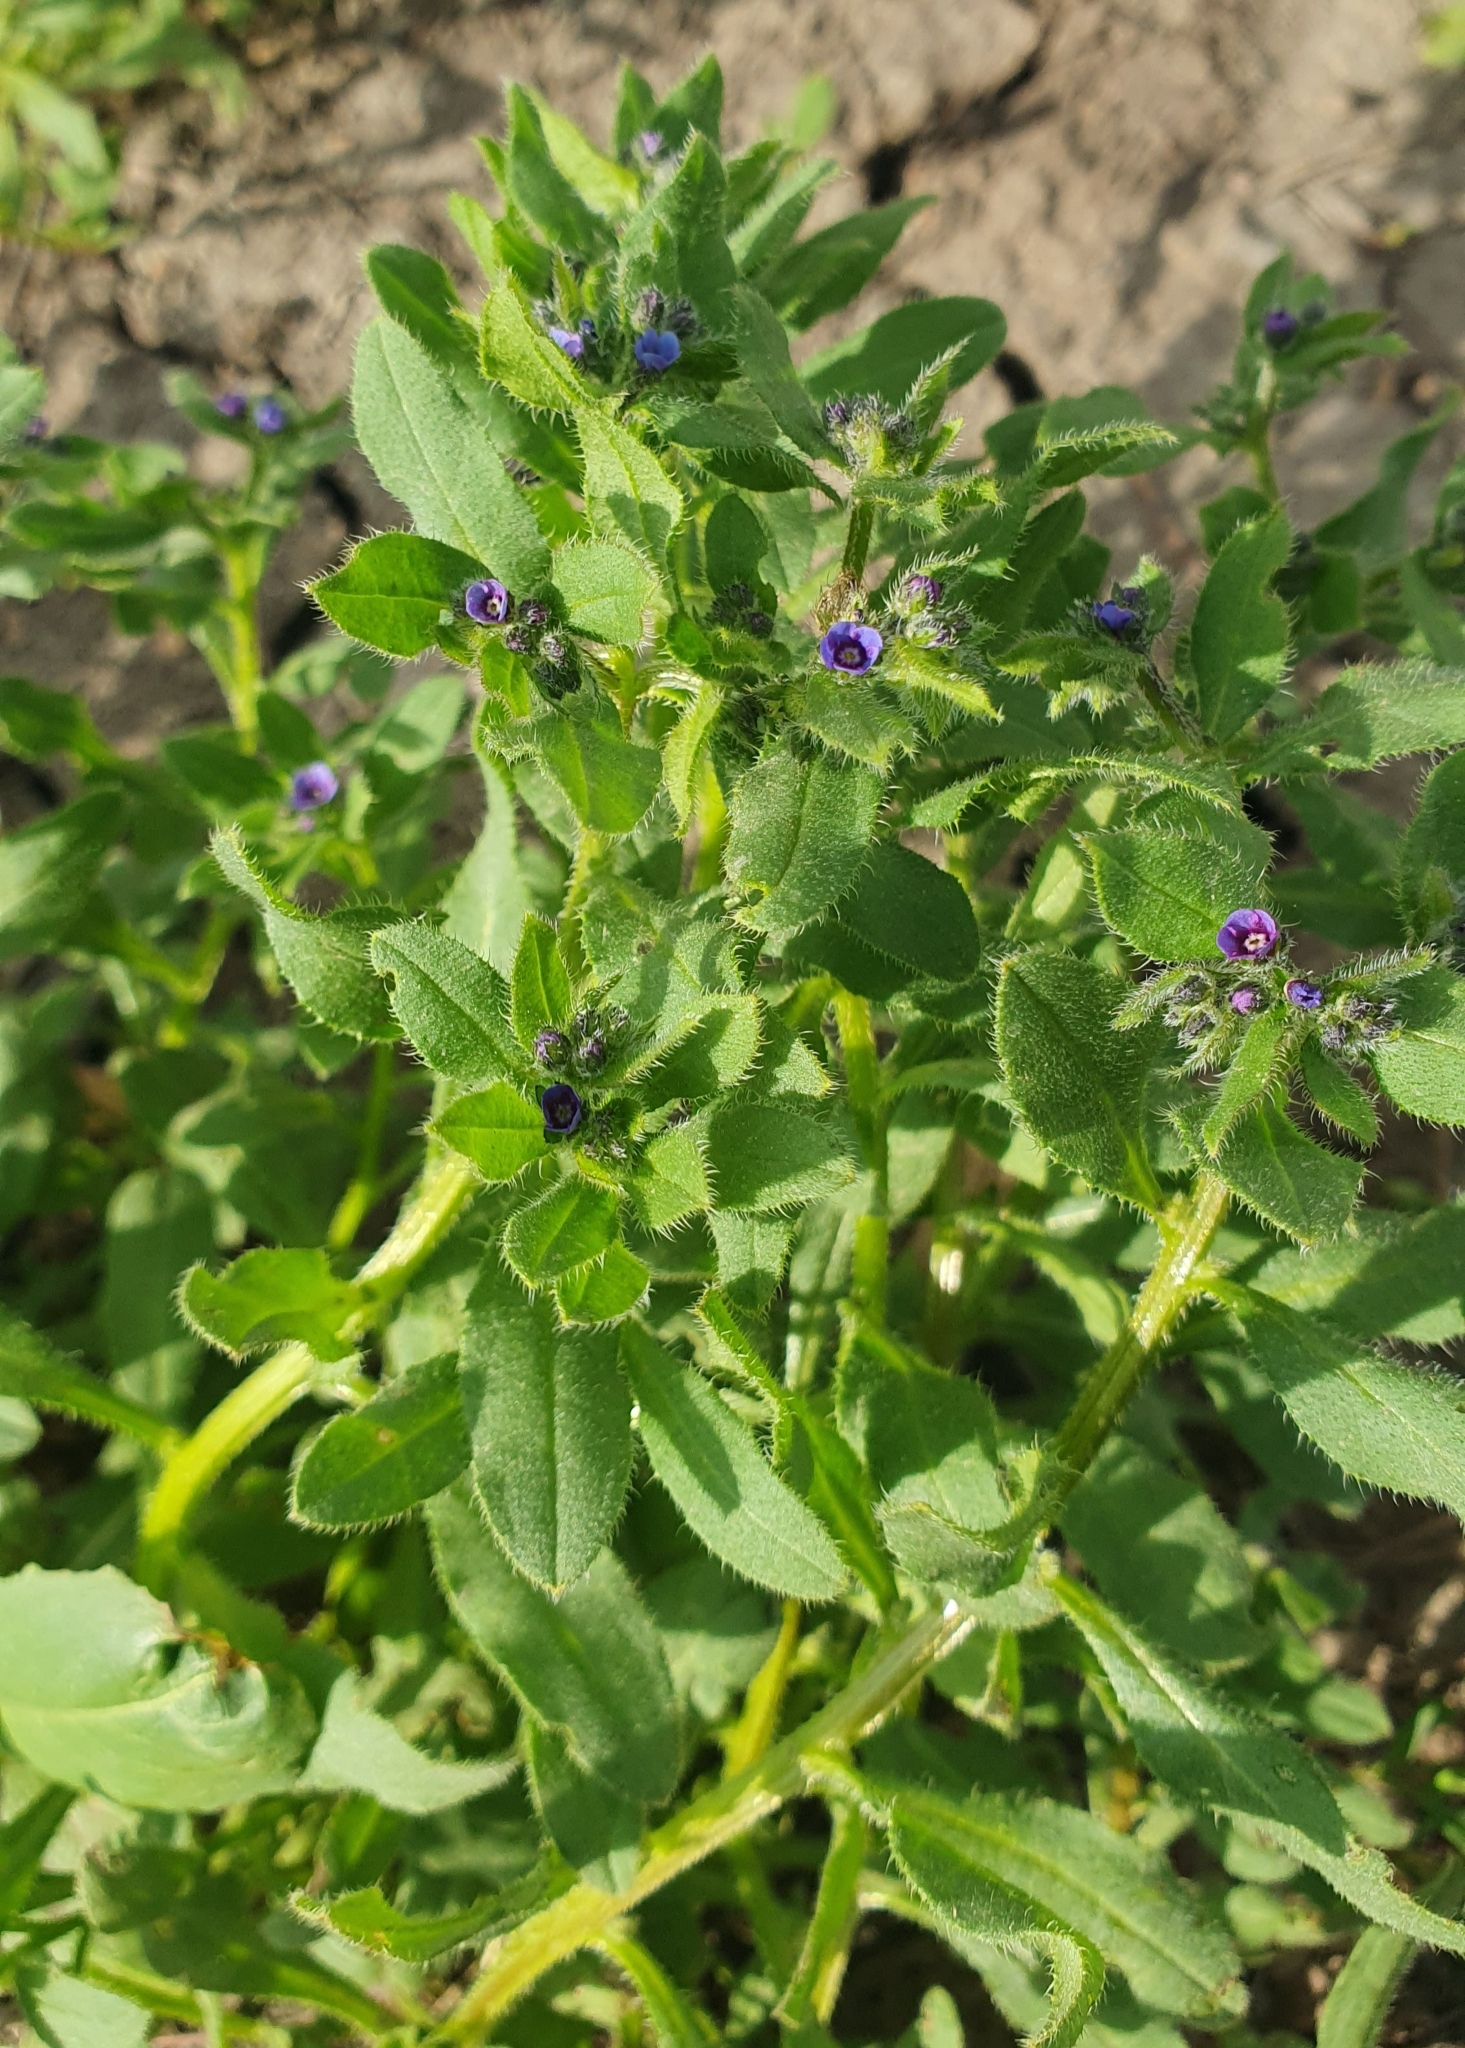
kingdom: Plantae
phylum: Tracheophyta
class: Magnoliopsida
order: Boraginales
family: Boraginaceae
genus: Asperugo
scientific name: Asperugo procumbens
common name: Madwort
